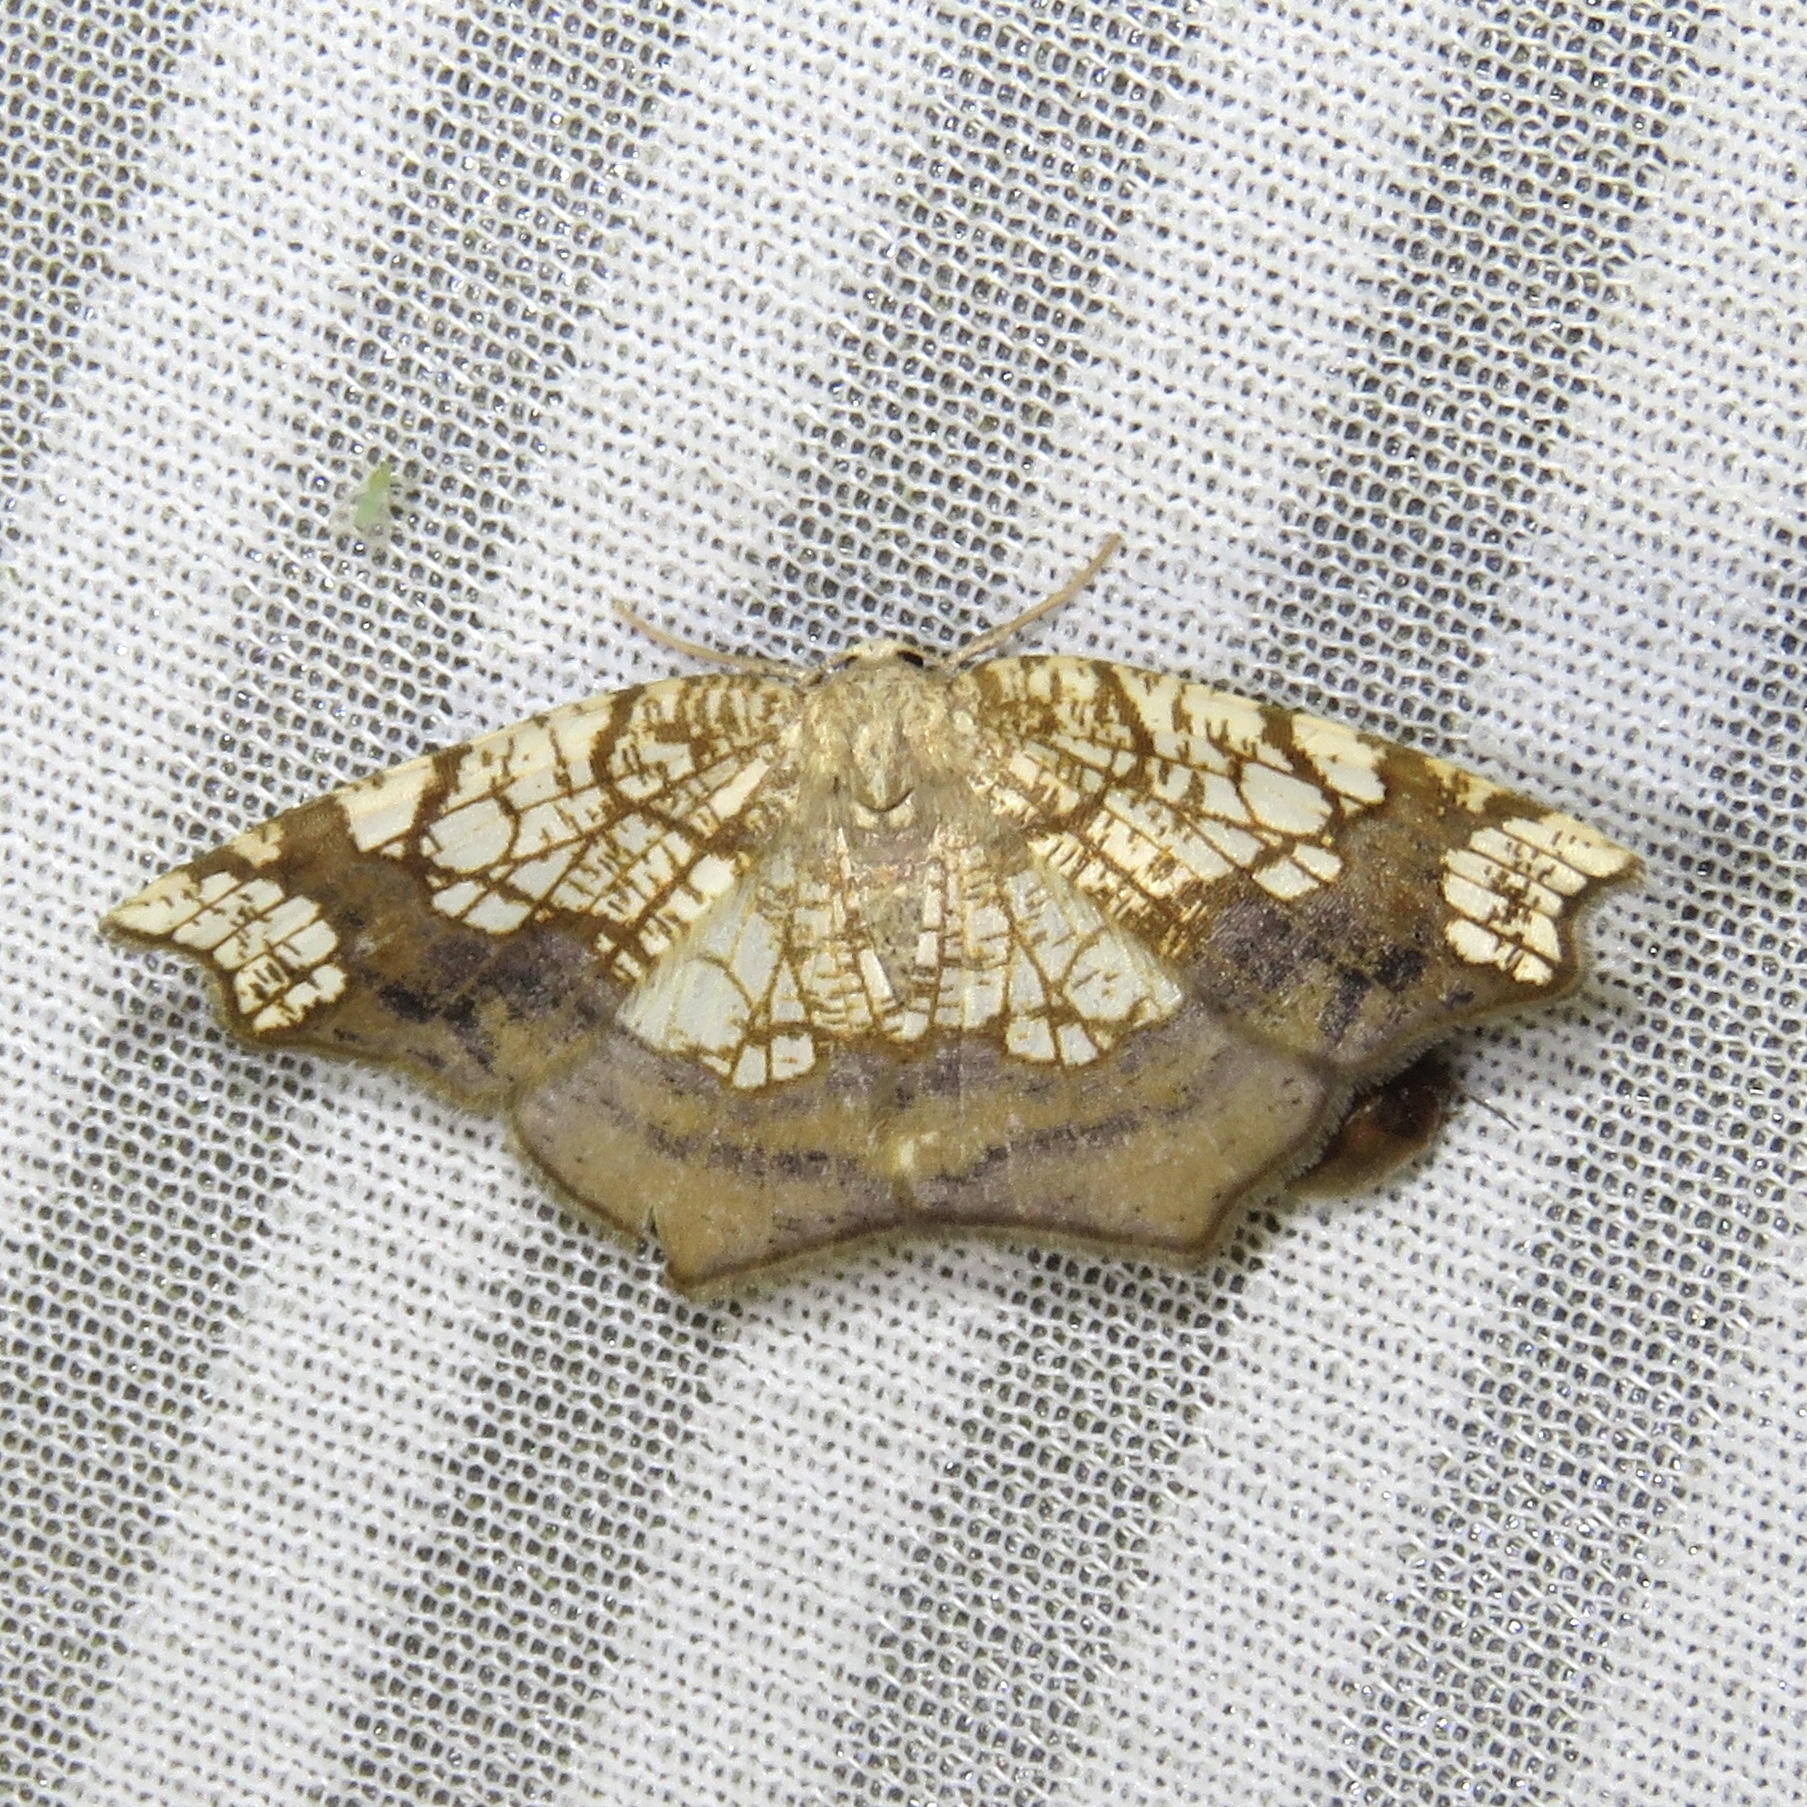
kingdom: Animalia
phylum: Arthropoda
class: Insecta
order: Lepidoptera
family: Geometridae
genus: Nematocampa
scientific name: Nematocampa resistaria
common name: Horned spanworm moth
